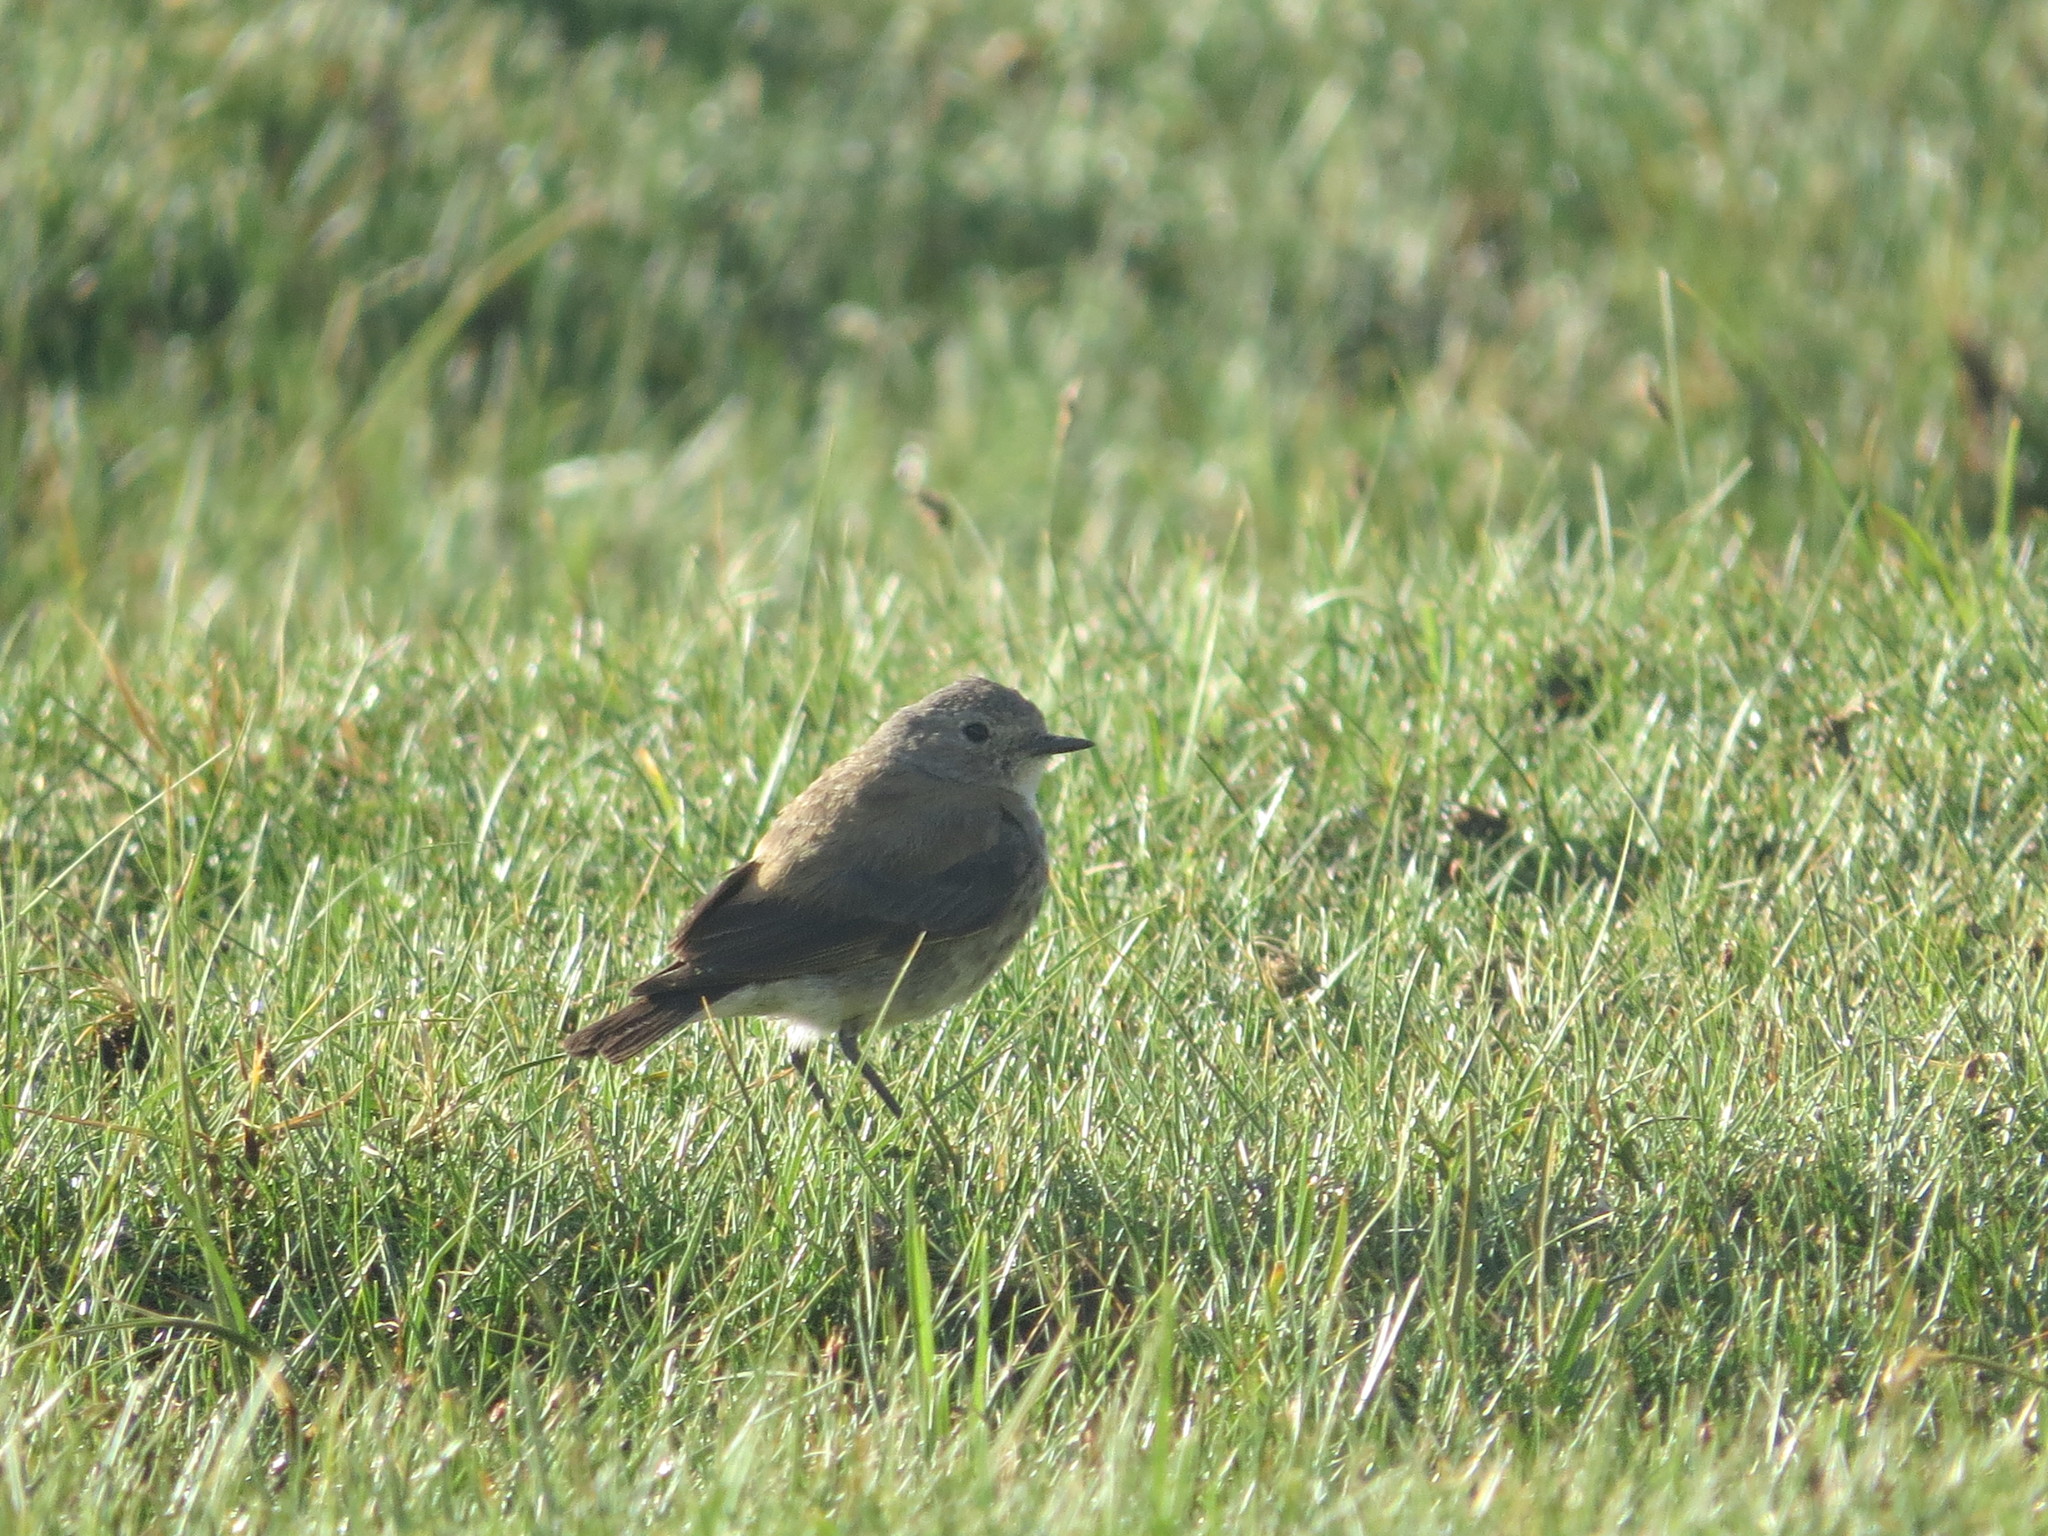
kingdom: Animalia
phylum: Chordata
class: Aves
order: Passeriformes
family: Tyrannidae
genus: Lessonia
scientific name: Lessonia rufa
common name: Austral negrito
